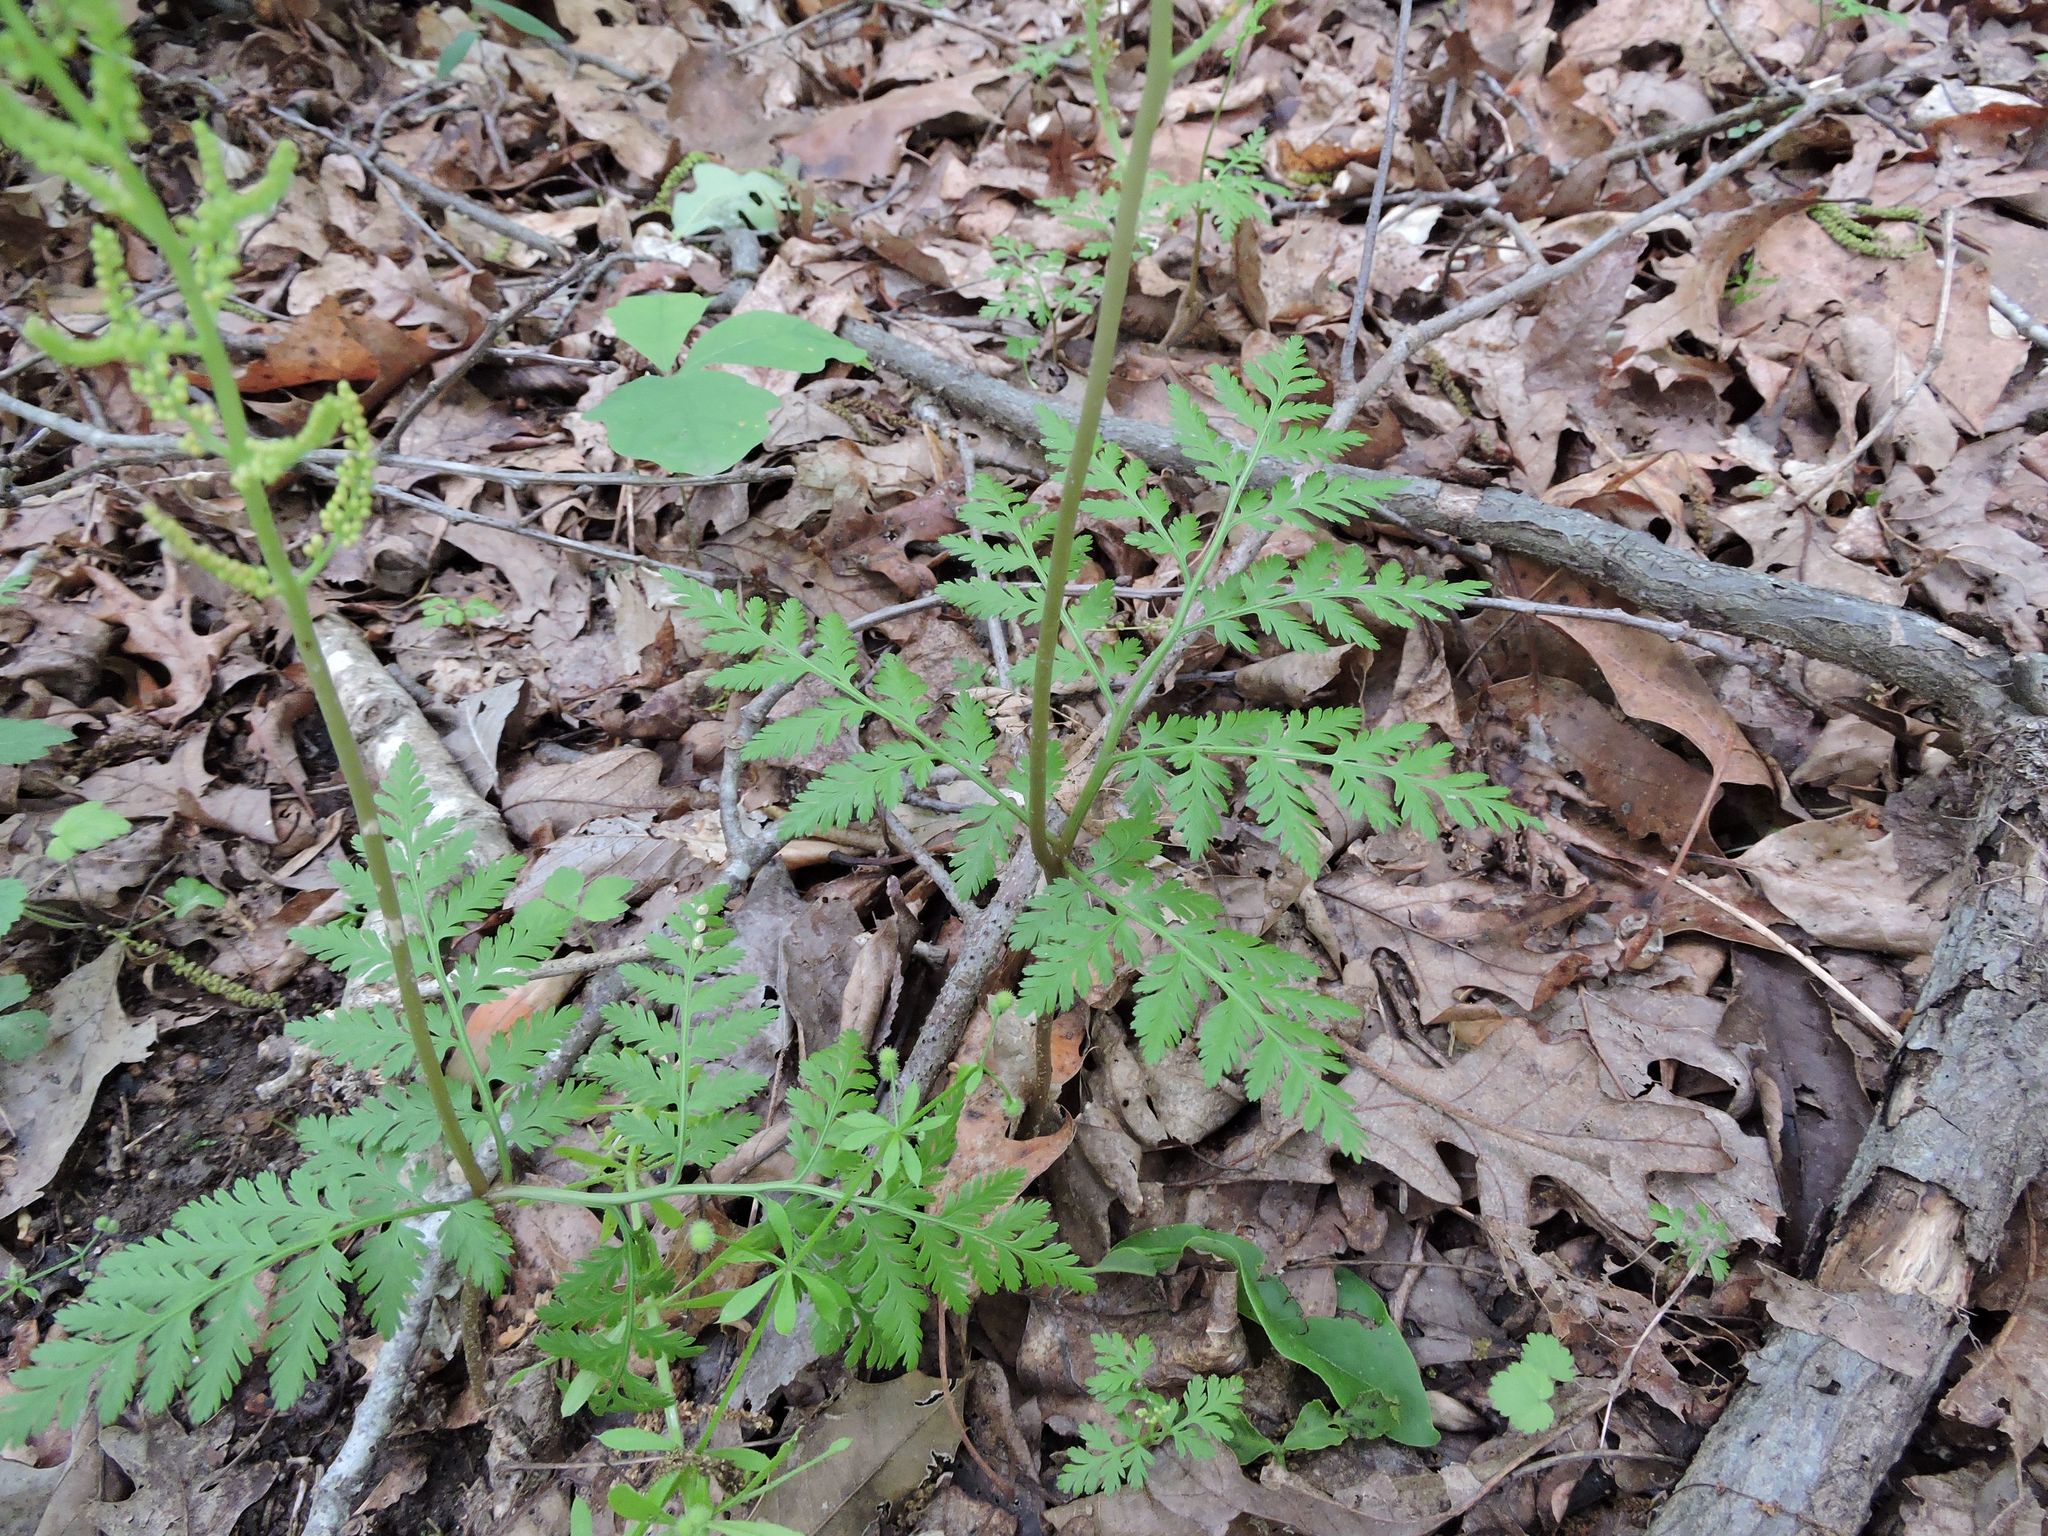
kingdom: Plantae
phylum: Tracheophyta
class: Polypodiopsida
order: Ophioglossales
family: Ophioglossaceae
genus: Botrypus
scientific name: Botrypus virginianus
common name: Common grapefern
